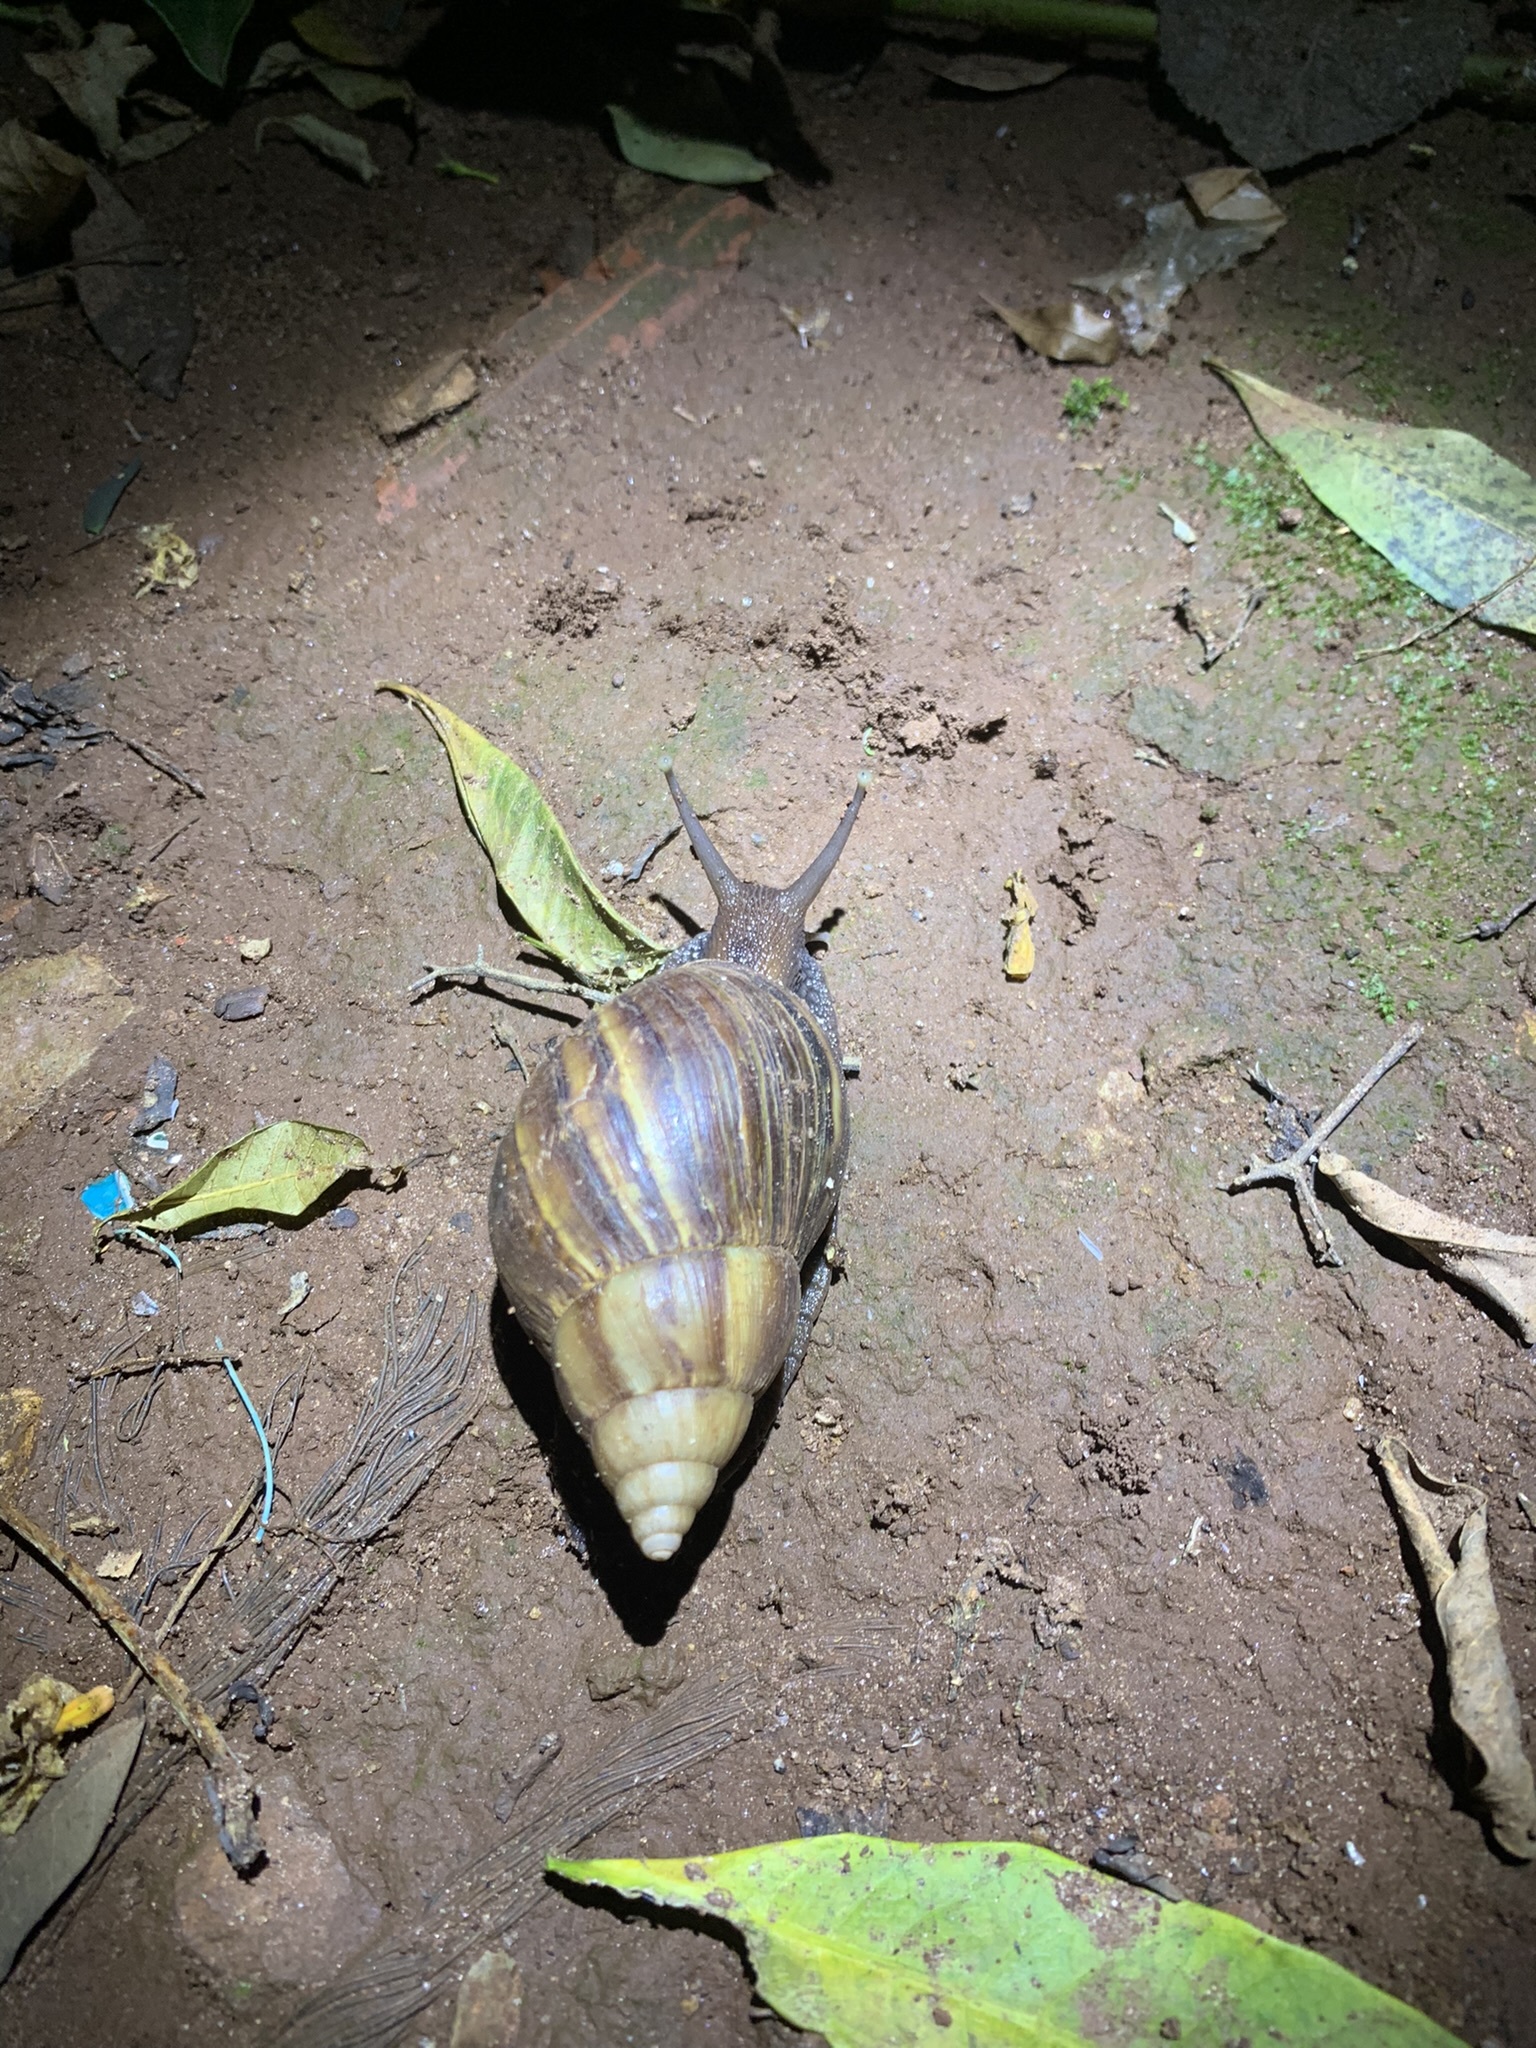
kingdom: Animalia
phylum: Mollusca
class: Gastropoda
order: Stylommatophora
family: Achatinidae
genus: Lissachatina
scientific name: Lissachatina fulica
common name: Giant african snail
